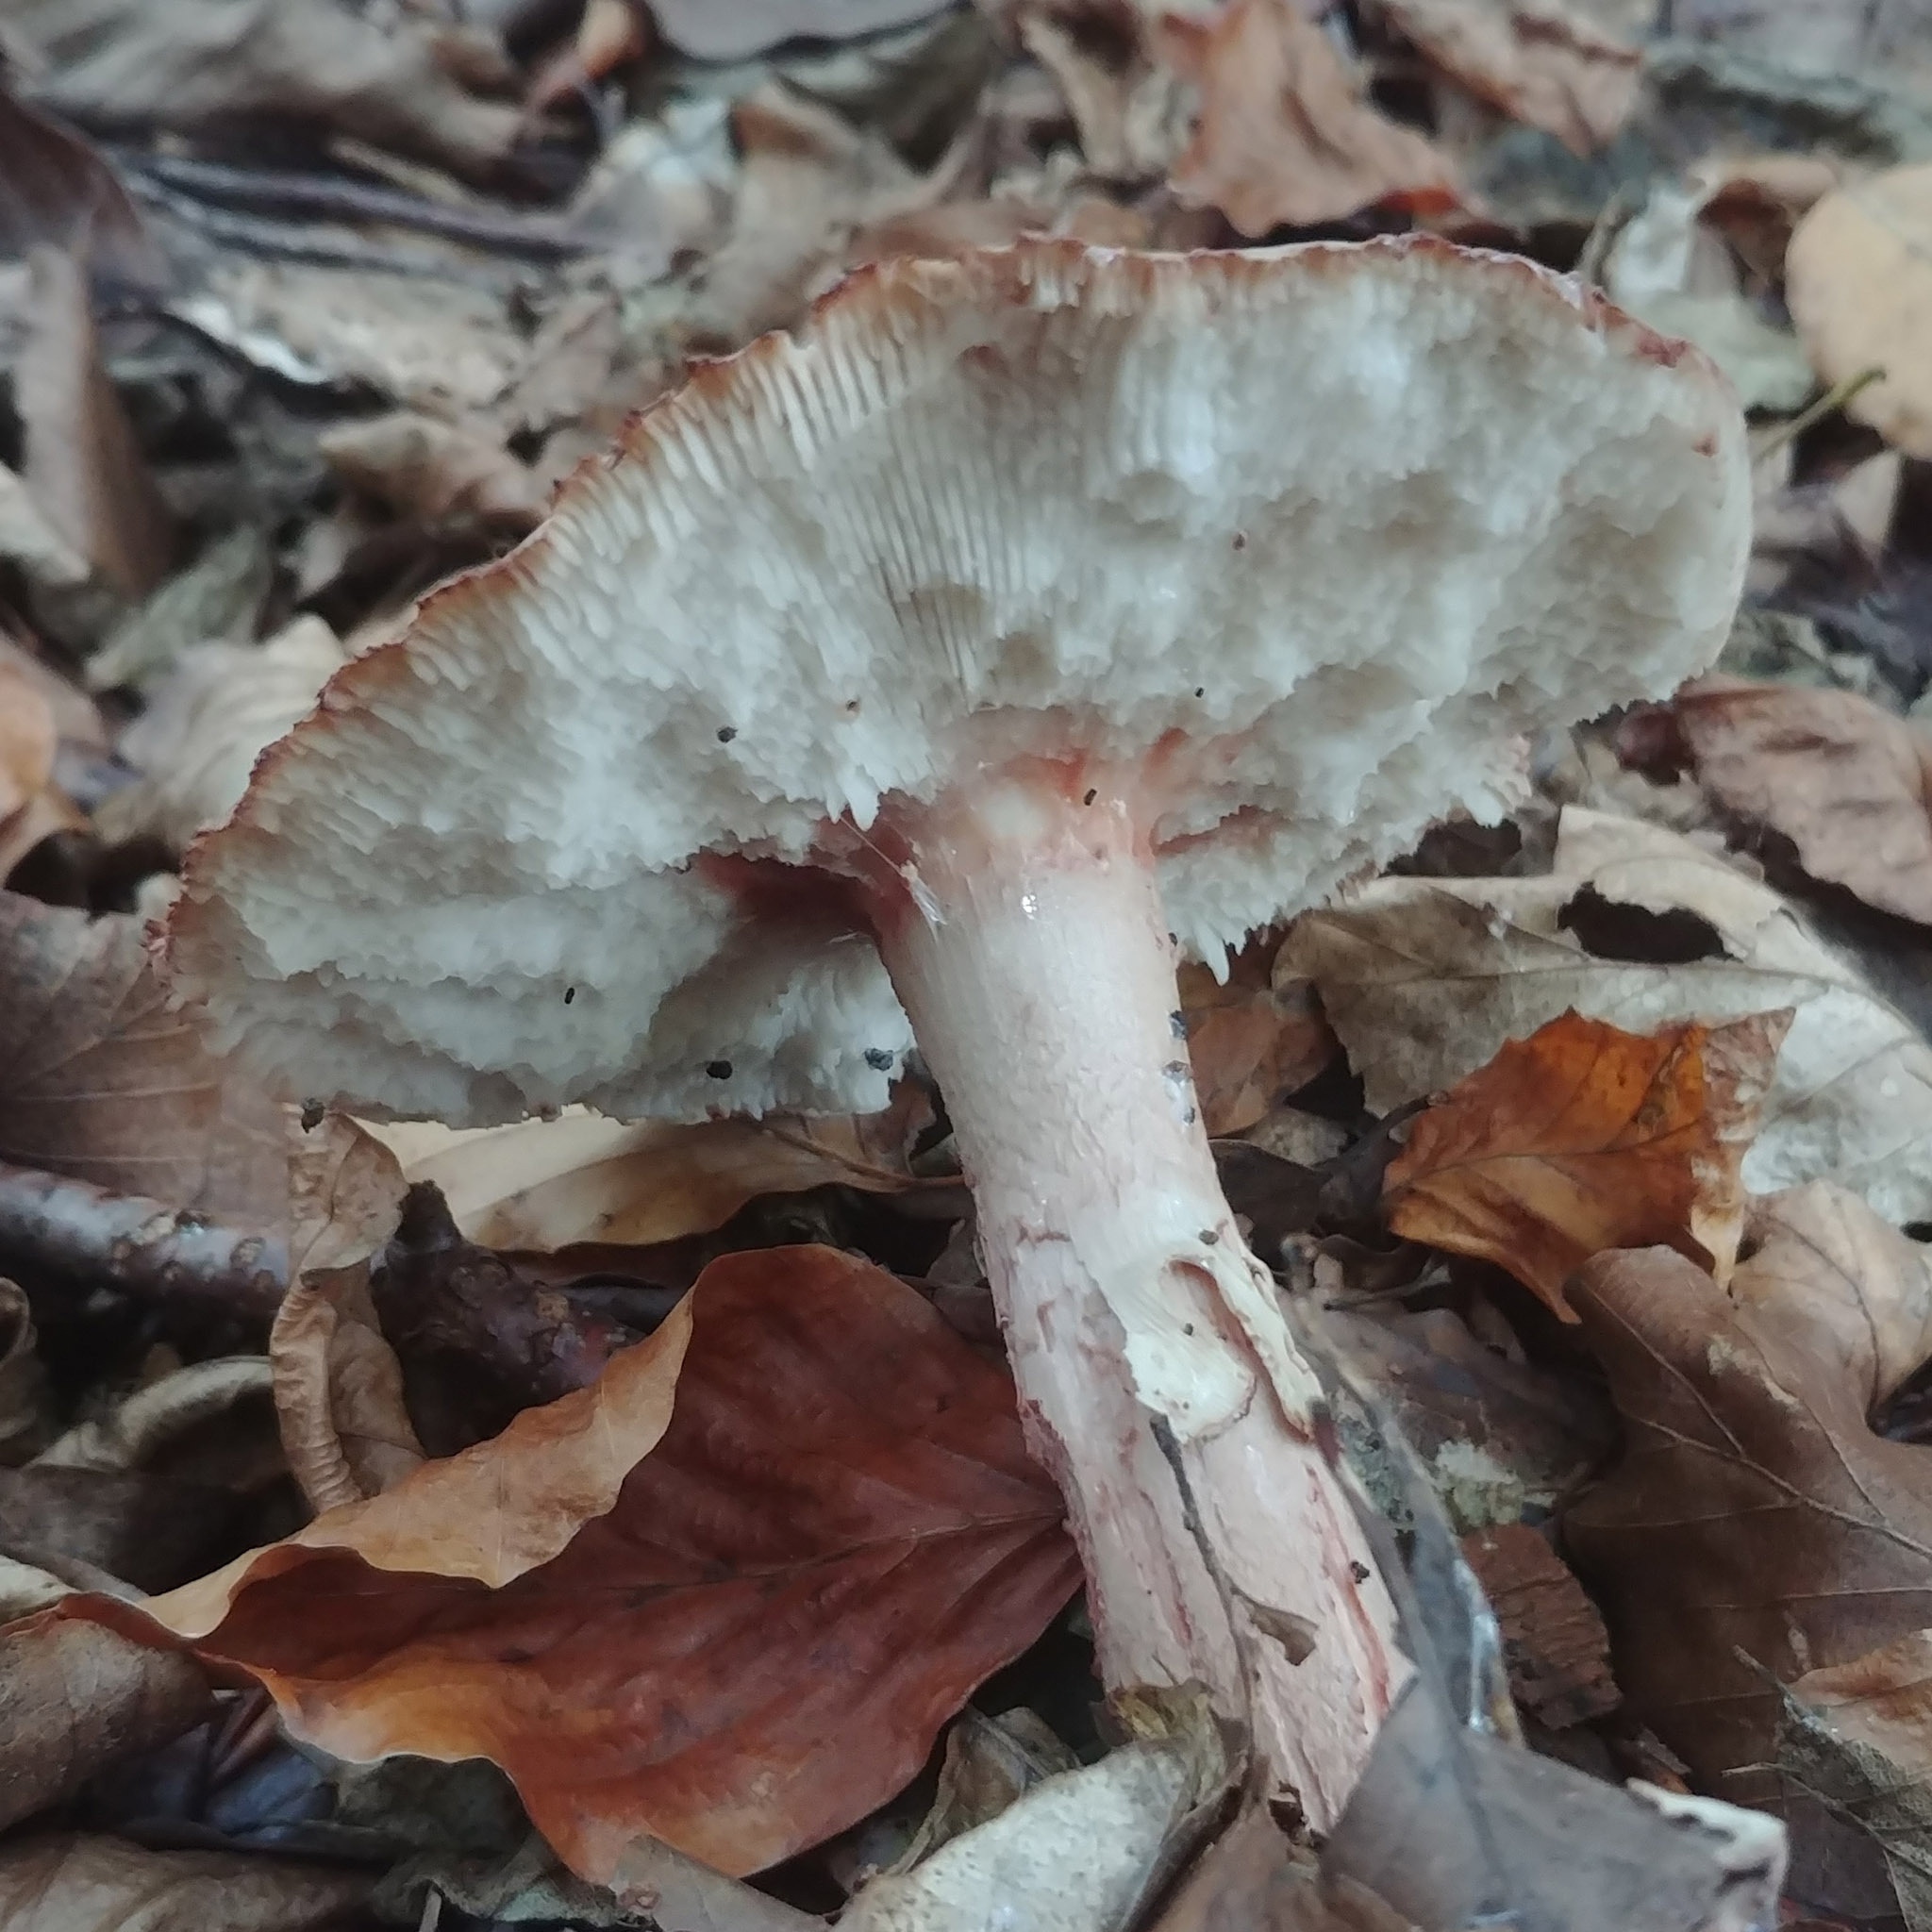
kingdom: Fungi
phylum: Basidiomycota
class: Agaricomycetes
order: Agaricales
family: Amanitaceae
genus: Amanita
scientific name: Amanita rubescens
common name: Blusher
